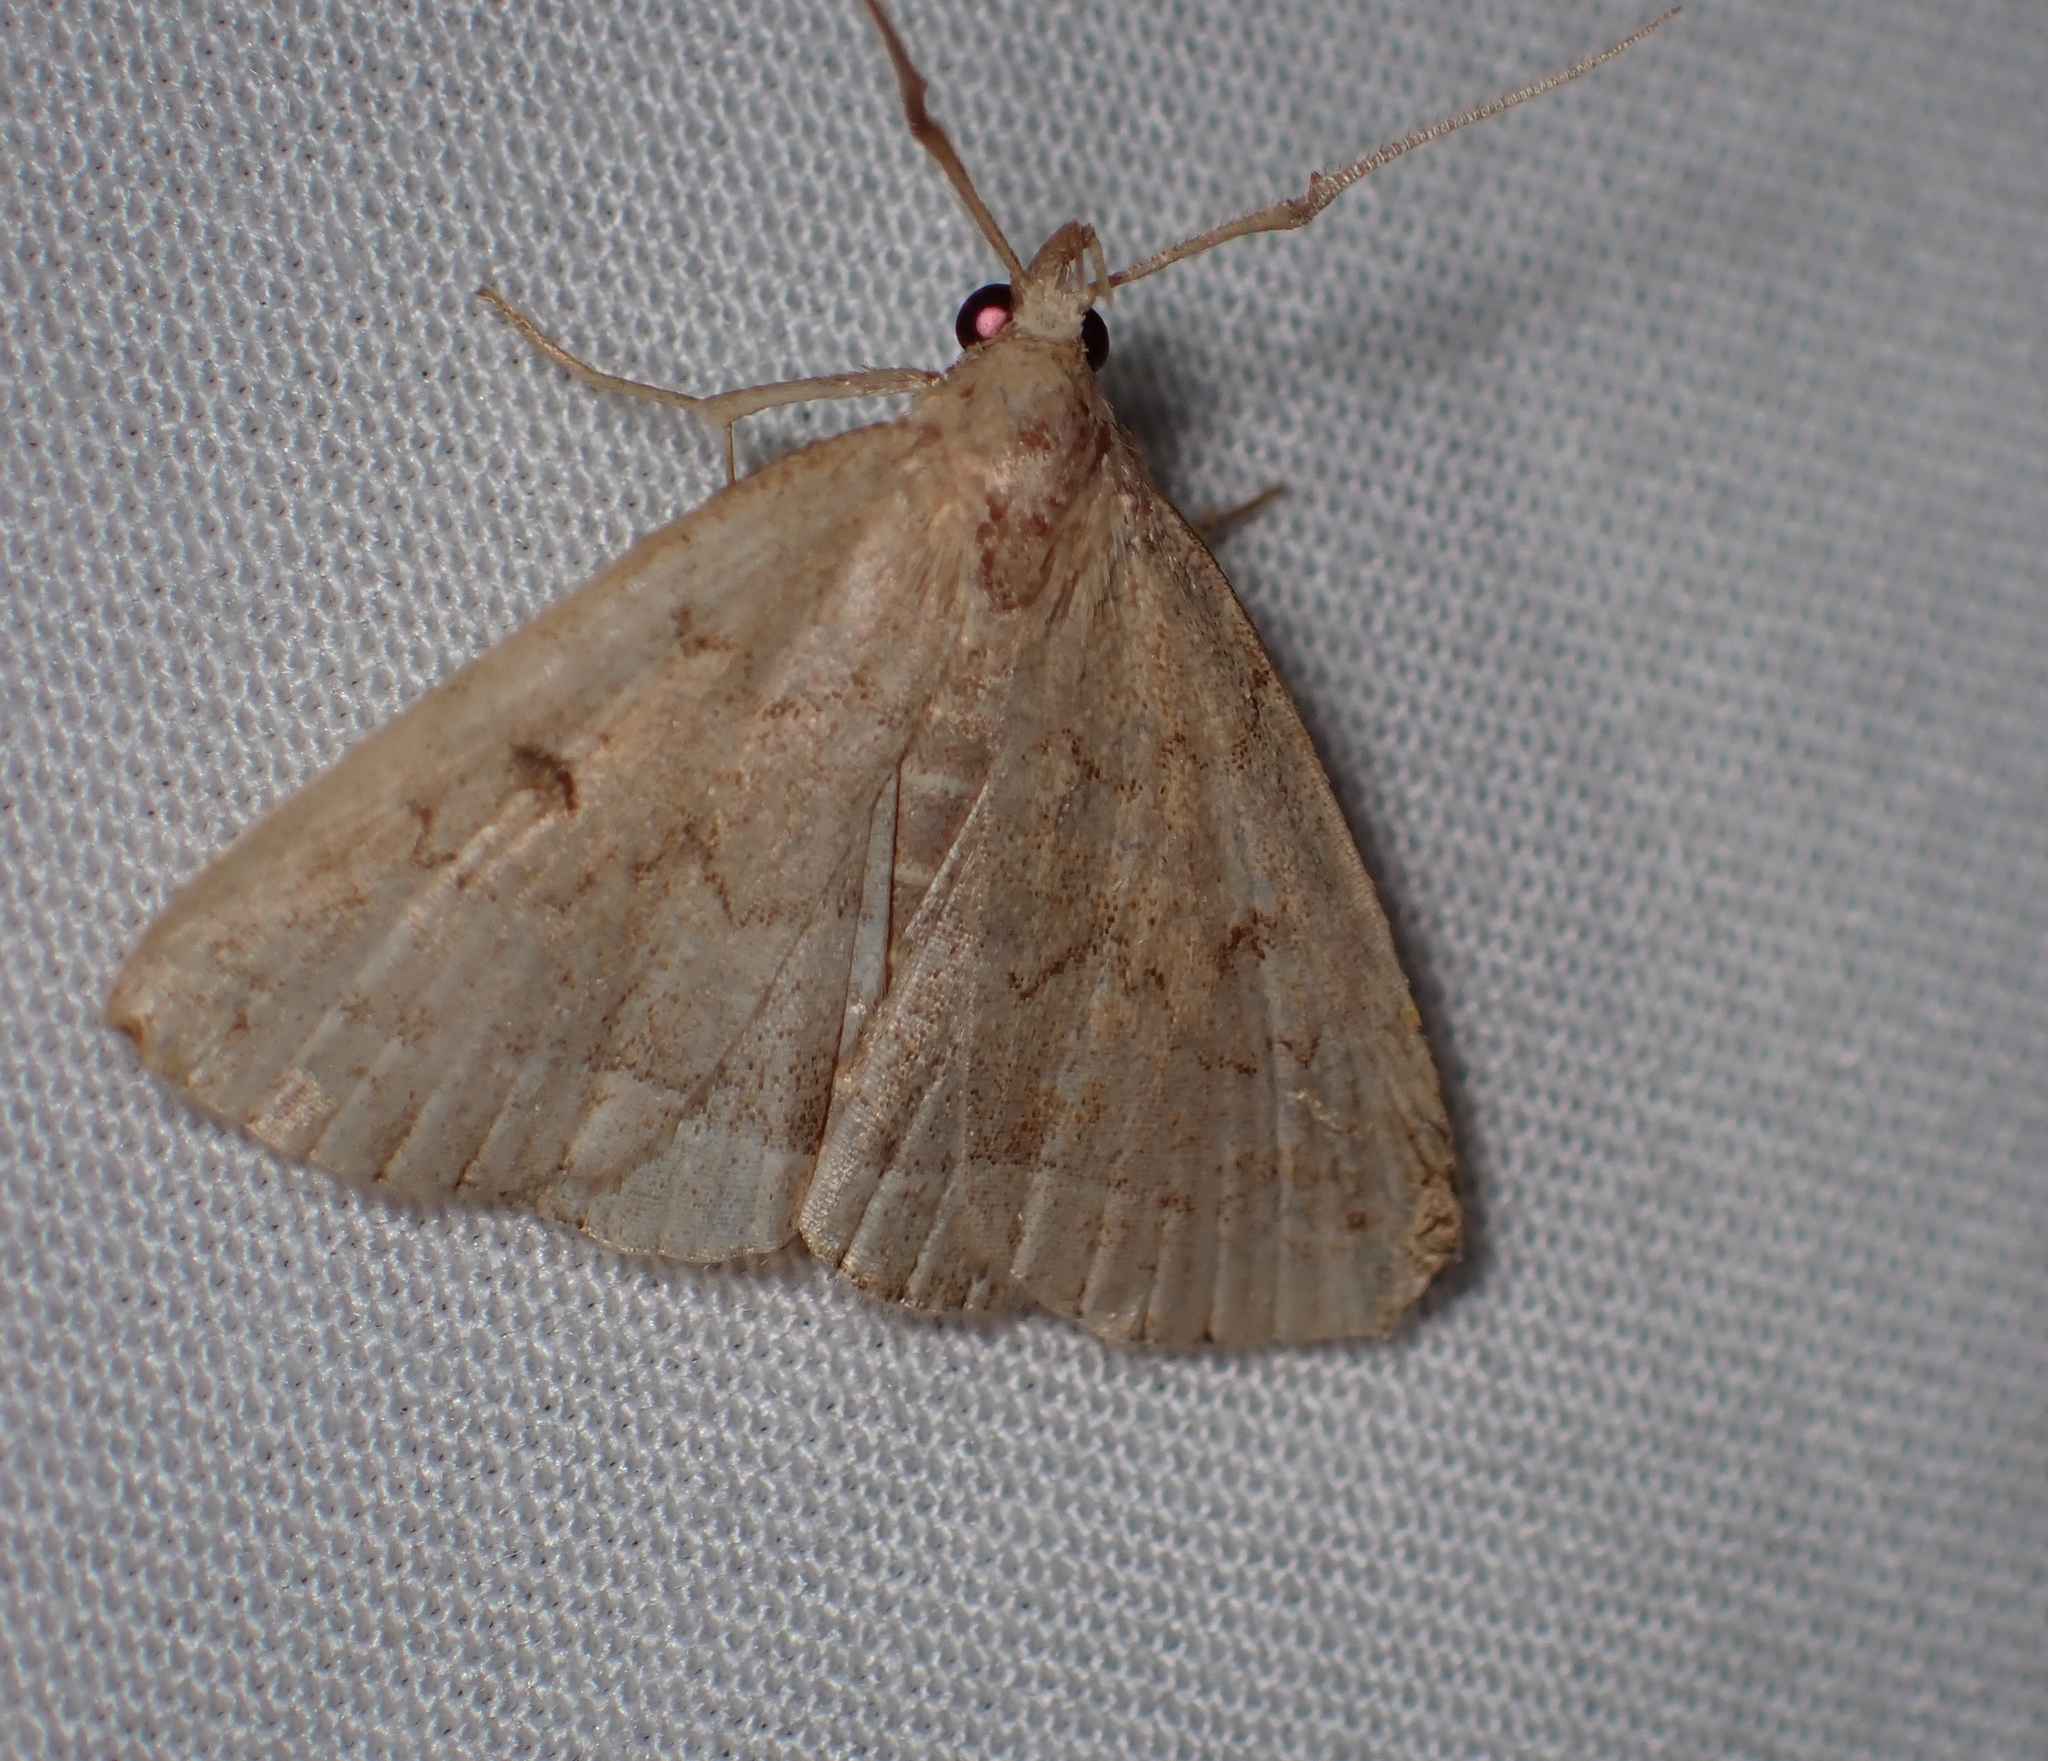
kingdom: Animalia
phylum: Arthropoda
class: Insecta
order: Lepidoptera
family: Erebidae
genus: Zanclognatha
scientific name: Zanclognatha jacchusalis
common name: Yellowish zanclognatha
